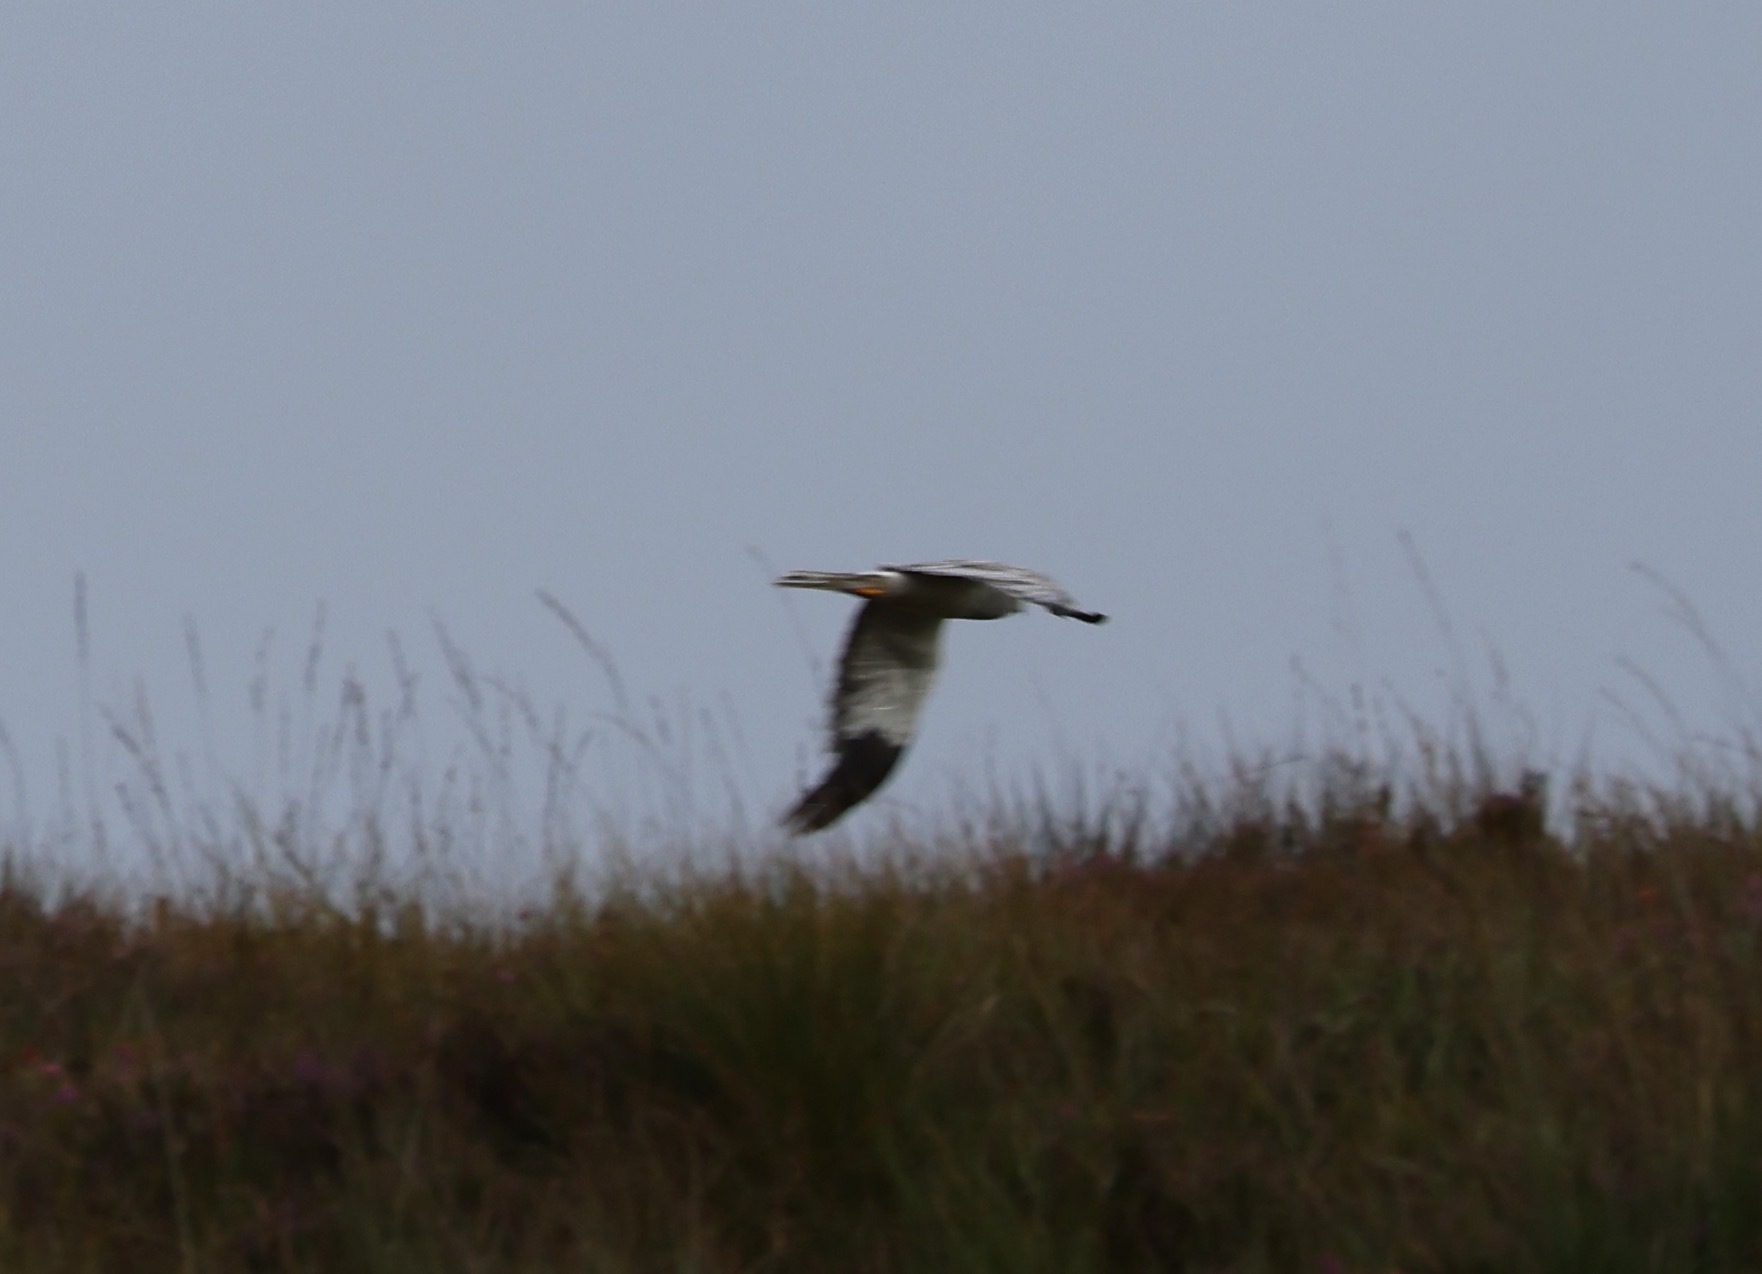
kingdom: Animalia
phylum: Chordata
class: Aves
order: Accipitriformes
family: Accipitridae
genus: Circus
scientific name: Circus cyaneus
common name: Hen harrier
